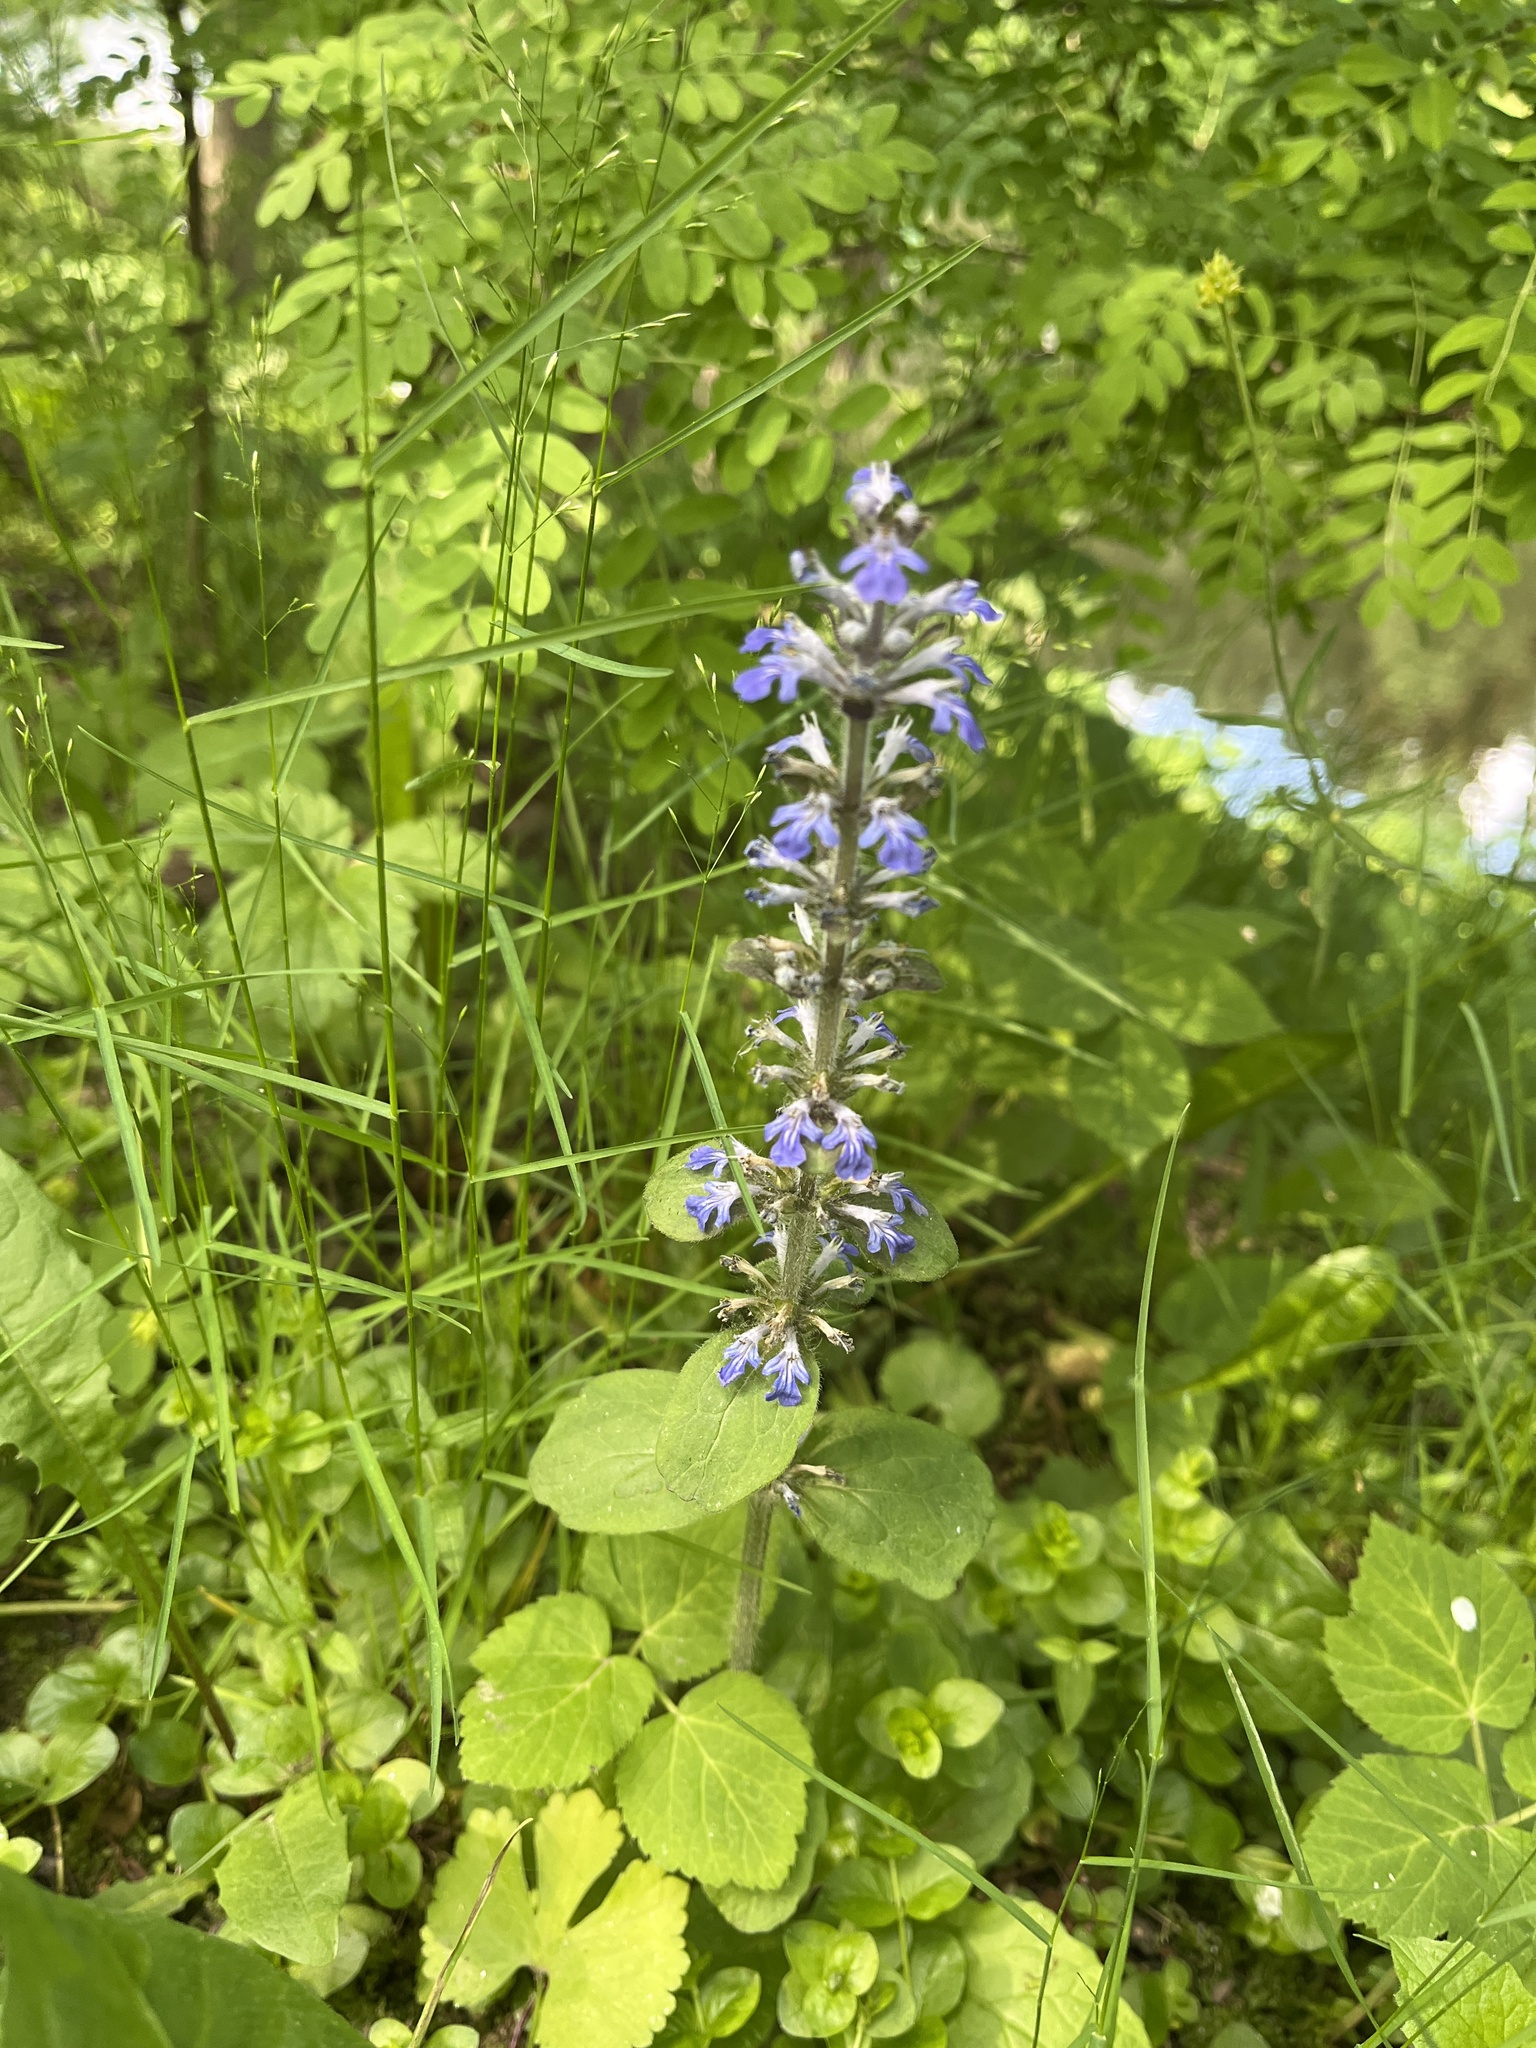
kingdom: Plantae
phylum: Tracheophyta
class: Magnoliopsida
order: Lamiales
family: Lamiaceae
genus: Ajuga
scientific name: Ajuga reptans
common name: Bugle
